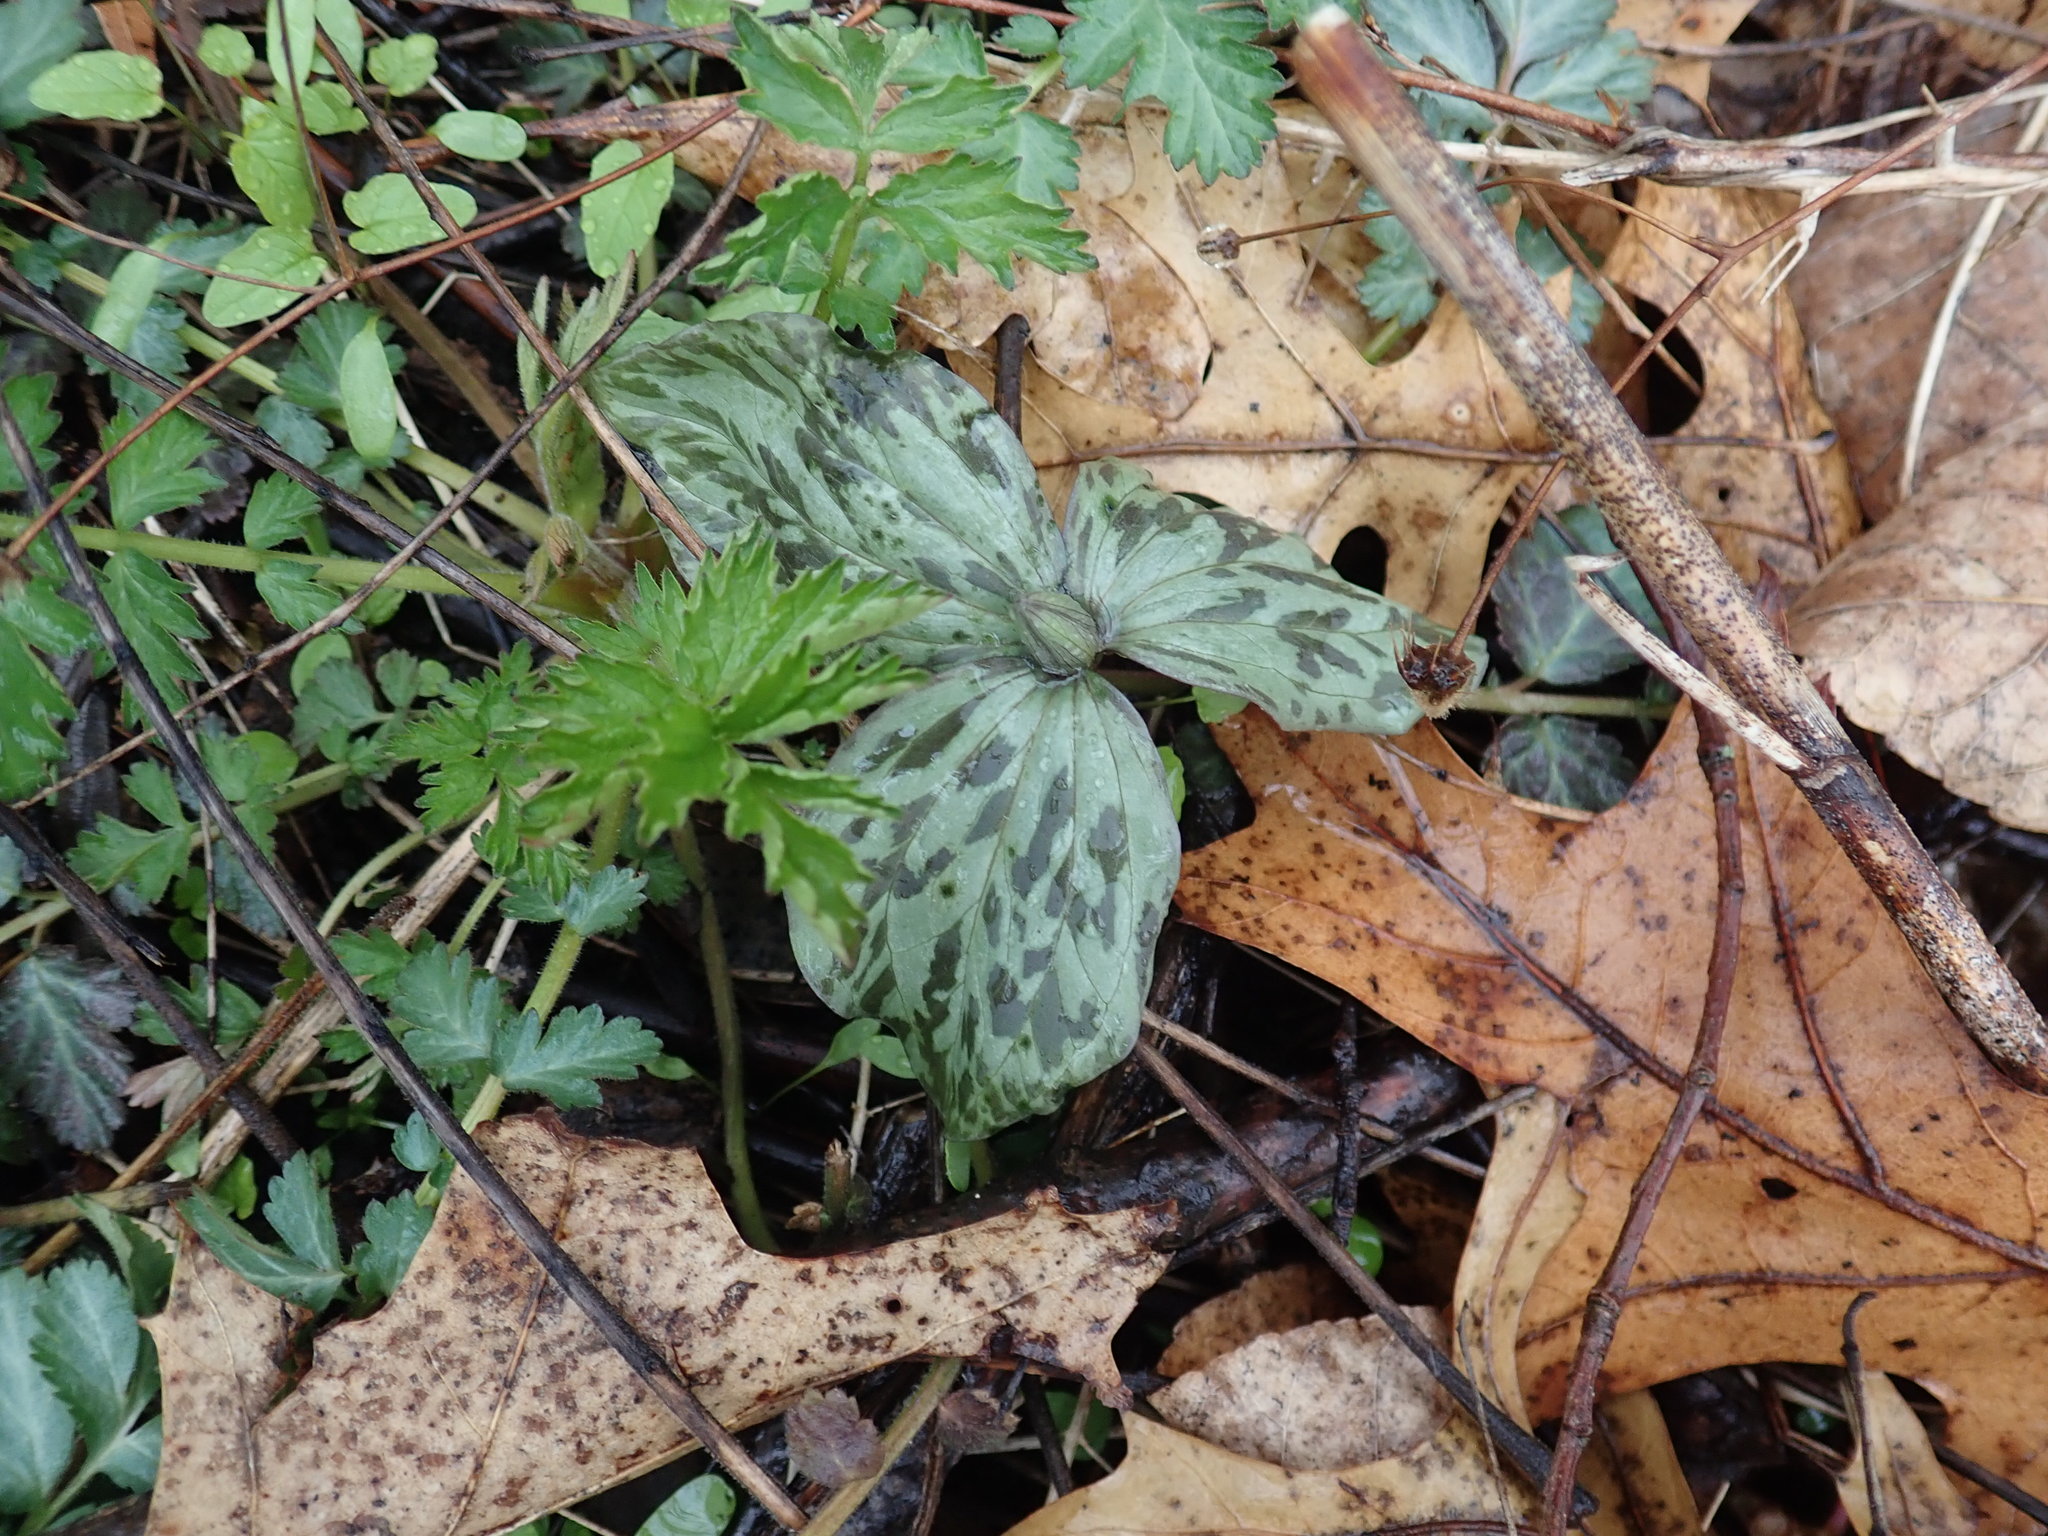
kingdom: Plantae
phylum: Tracheophyta
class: Liliopsida
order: Liliales
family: Melanthiaceae
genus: Trillium
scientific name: Trillium recurvatum
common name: Bloody butcher
